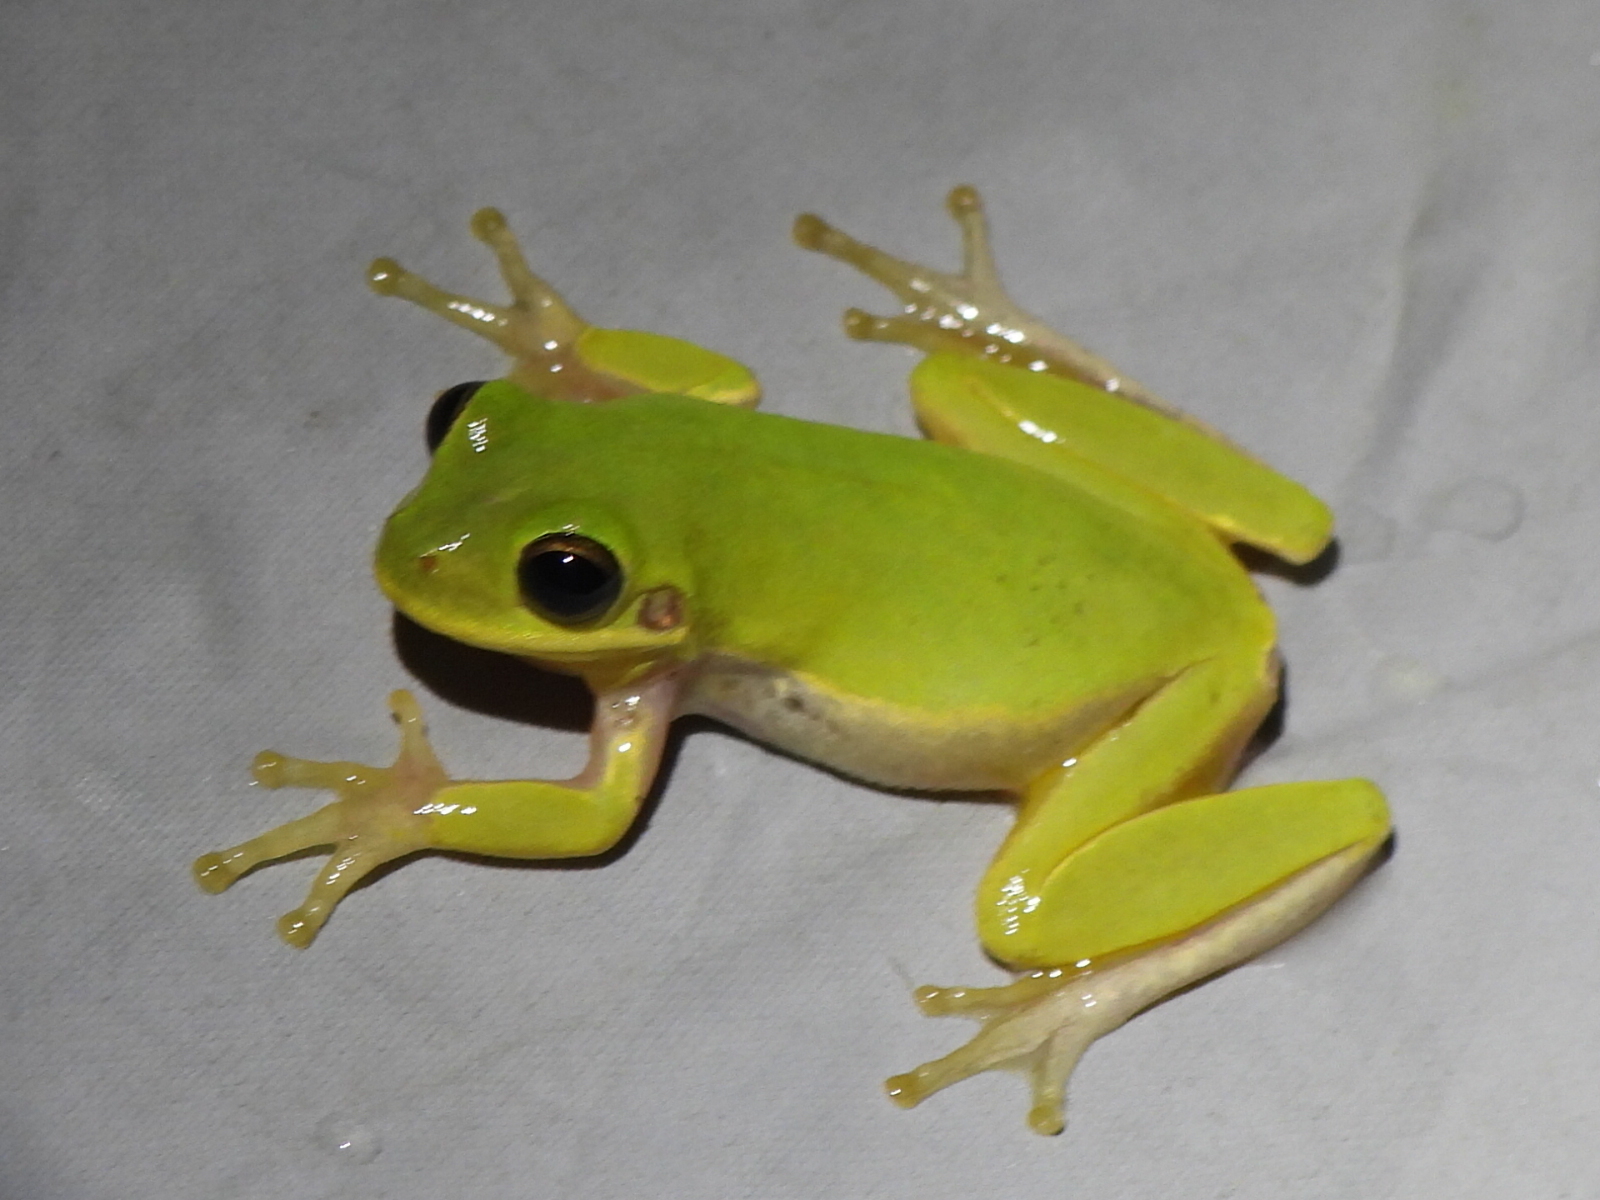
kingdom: Animalia
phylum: Chordata
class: Amphibia
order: Anura
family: Hylidae
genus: Dryophytes
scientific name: Dryophytes squirellus
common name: Squirrel treefrog
